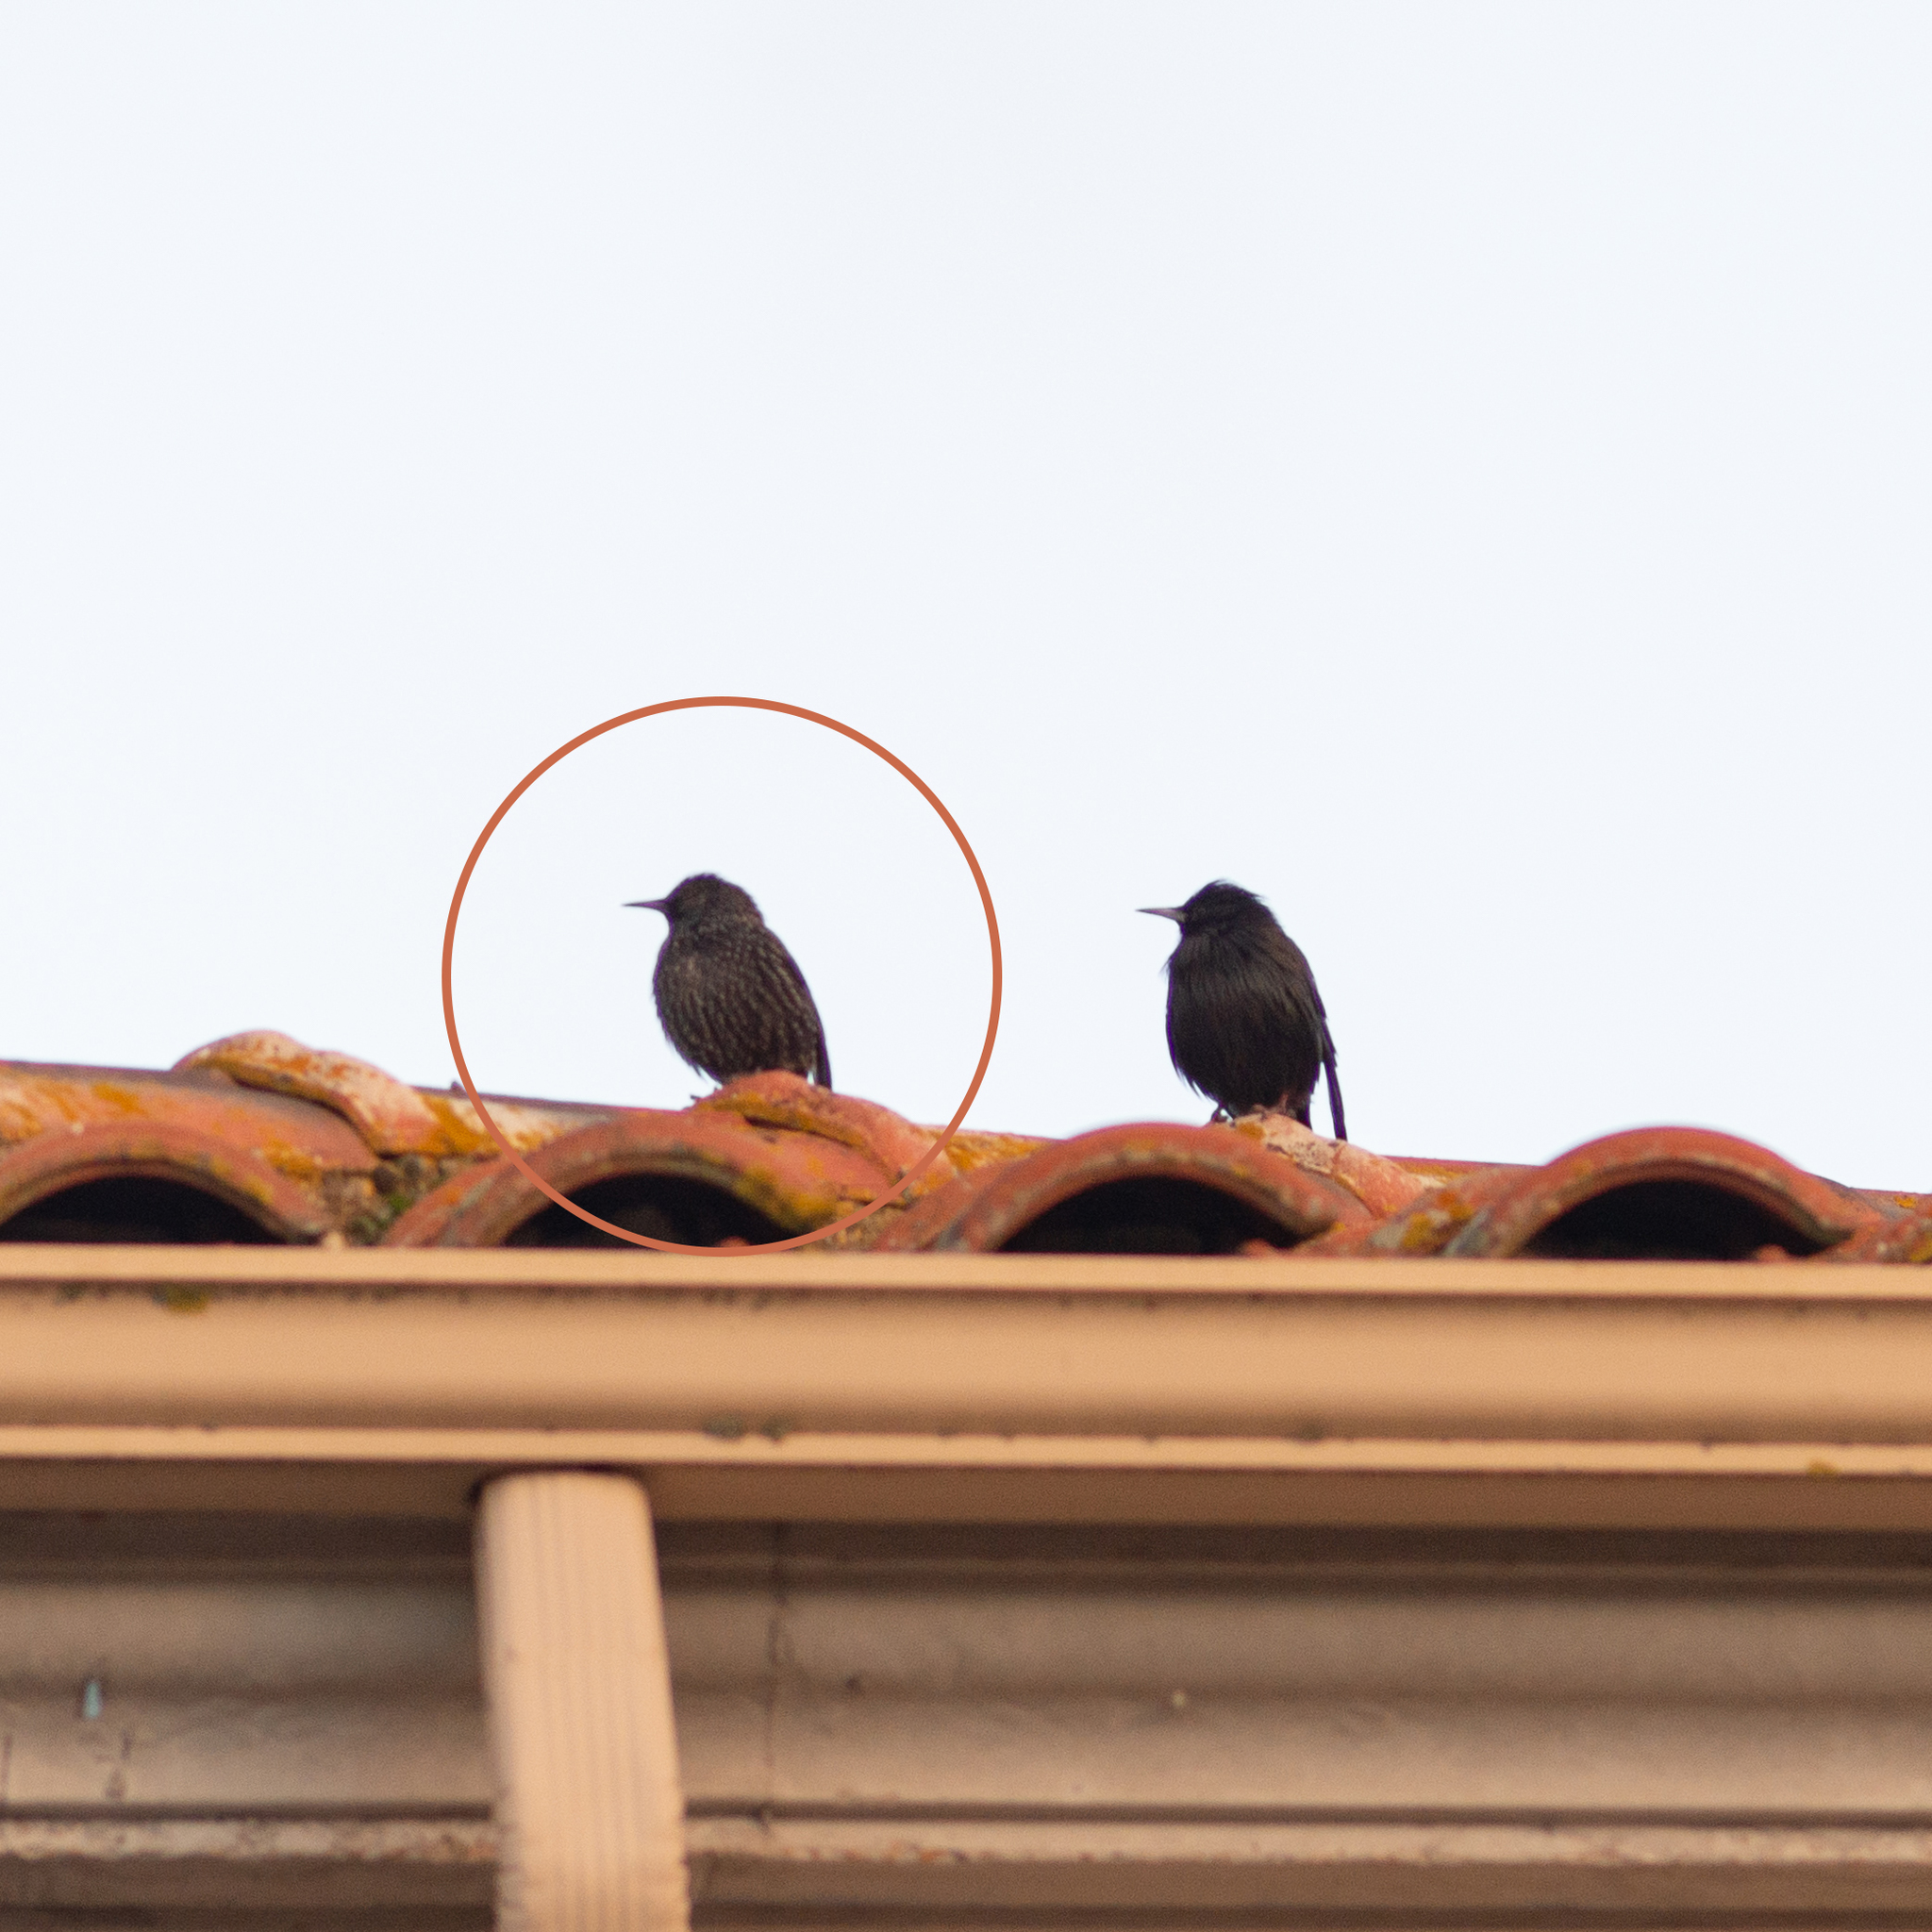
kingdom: Animalia
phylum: Chordata
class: Aves
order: Passeriformes
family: Sturnidae
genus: Sturnus
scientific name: Sturnus unicolor
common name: Spotless starling
